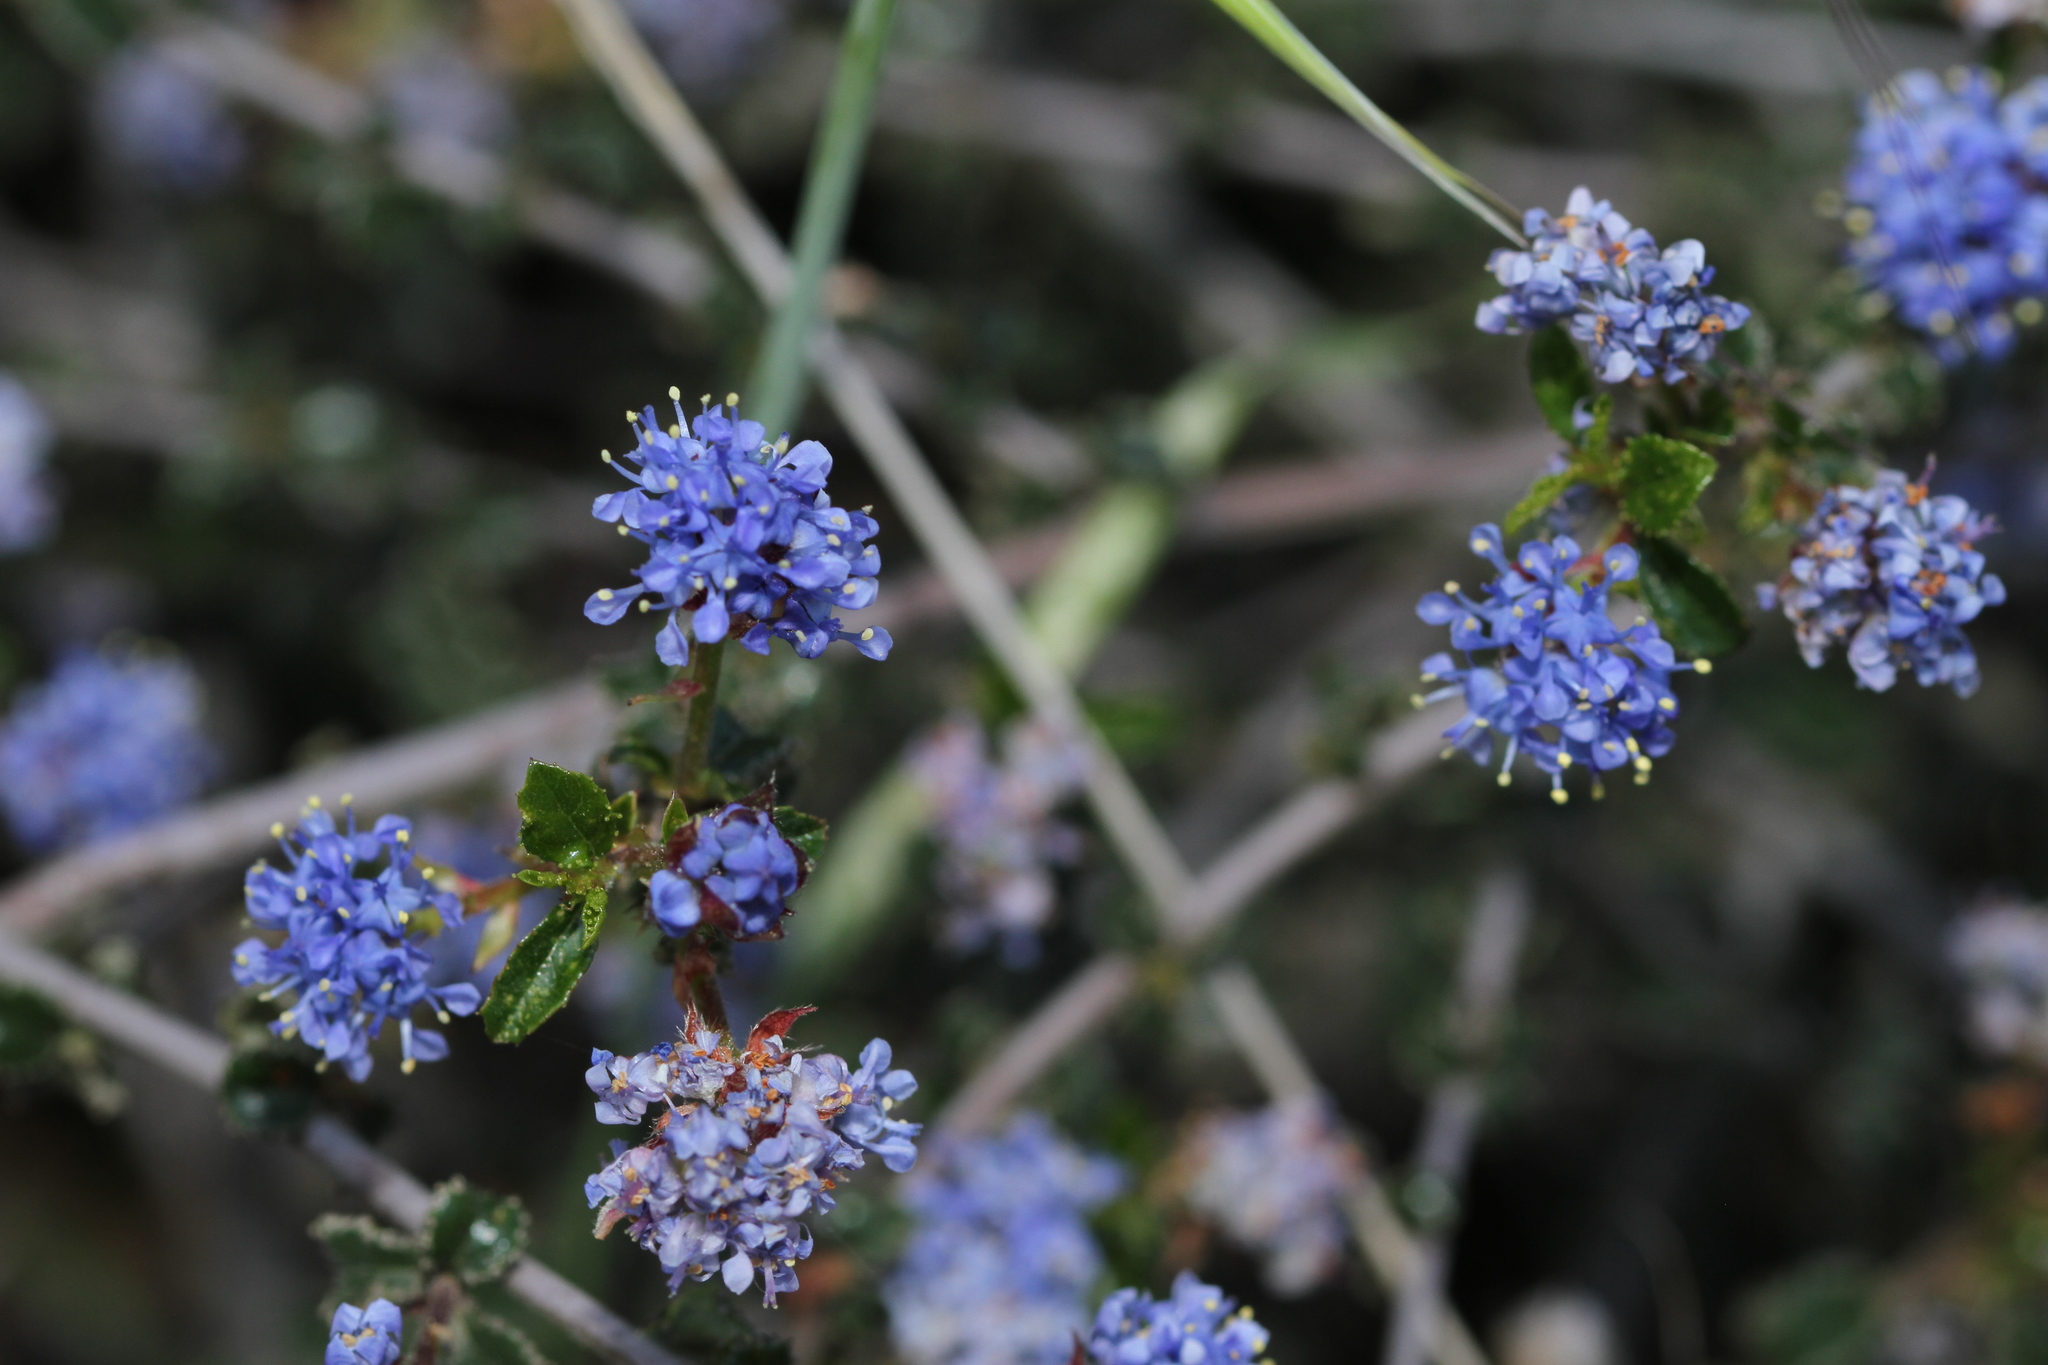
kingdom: Plantae
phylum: Tracheophyta
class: Magnoliopsida
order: Rosales
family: Rhamnaceae
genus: Ceanothus
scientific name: Ceanothus foliosus
